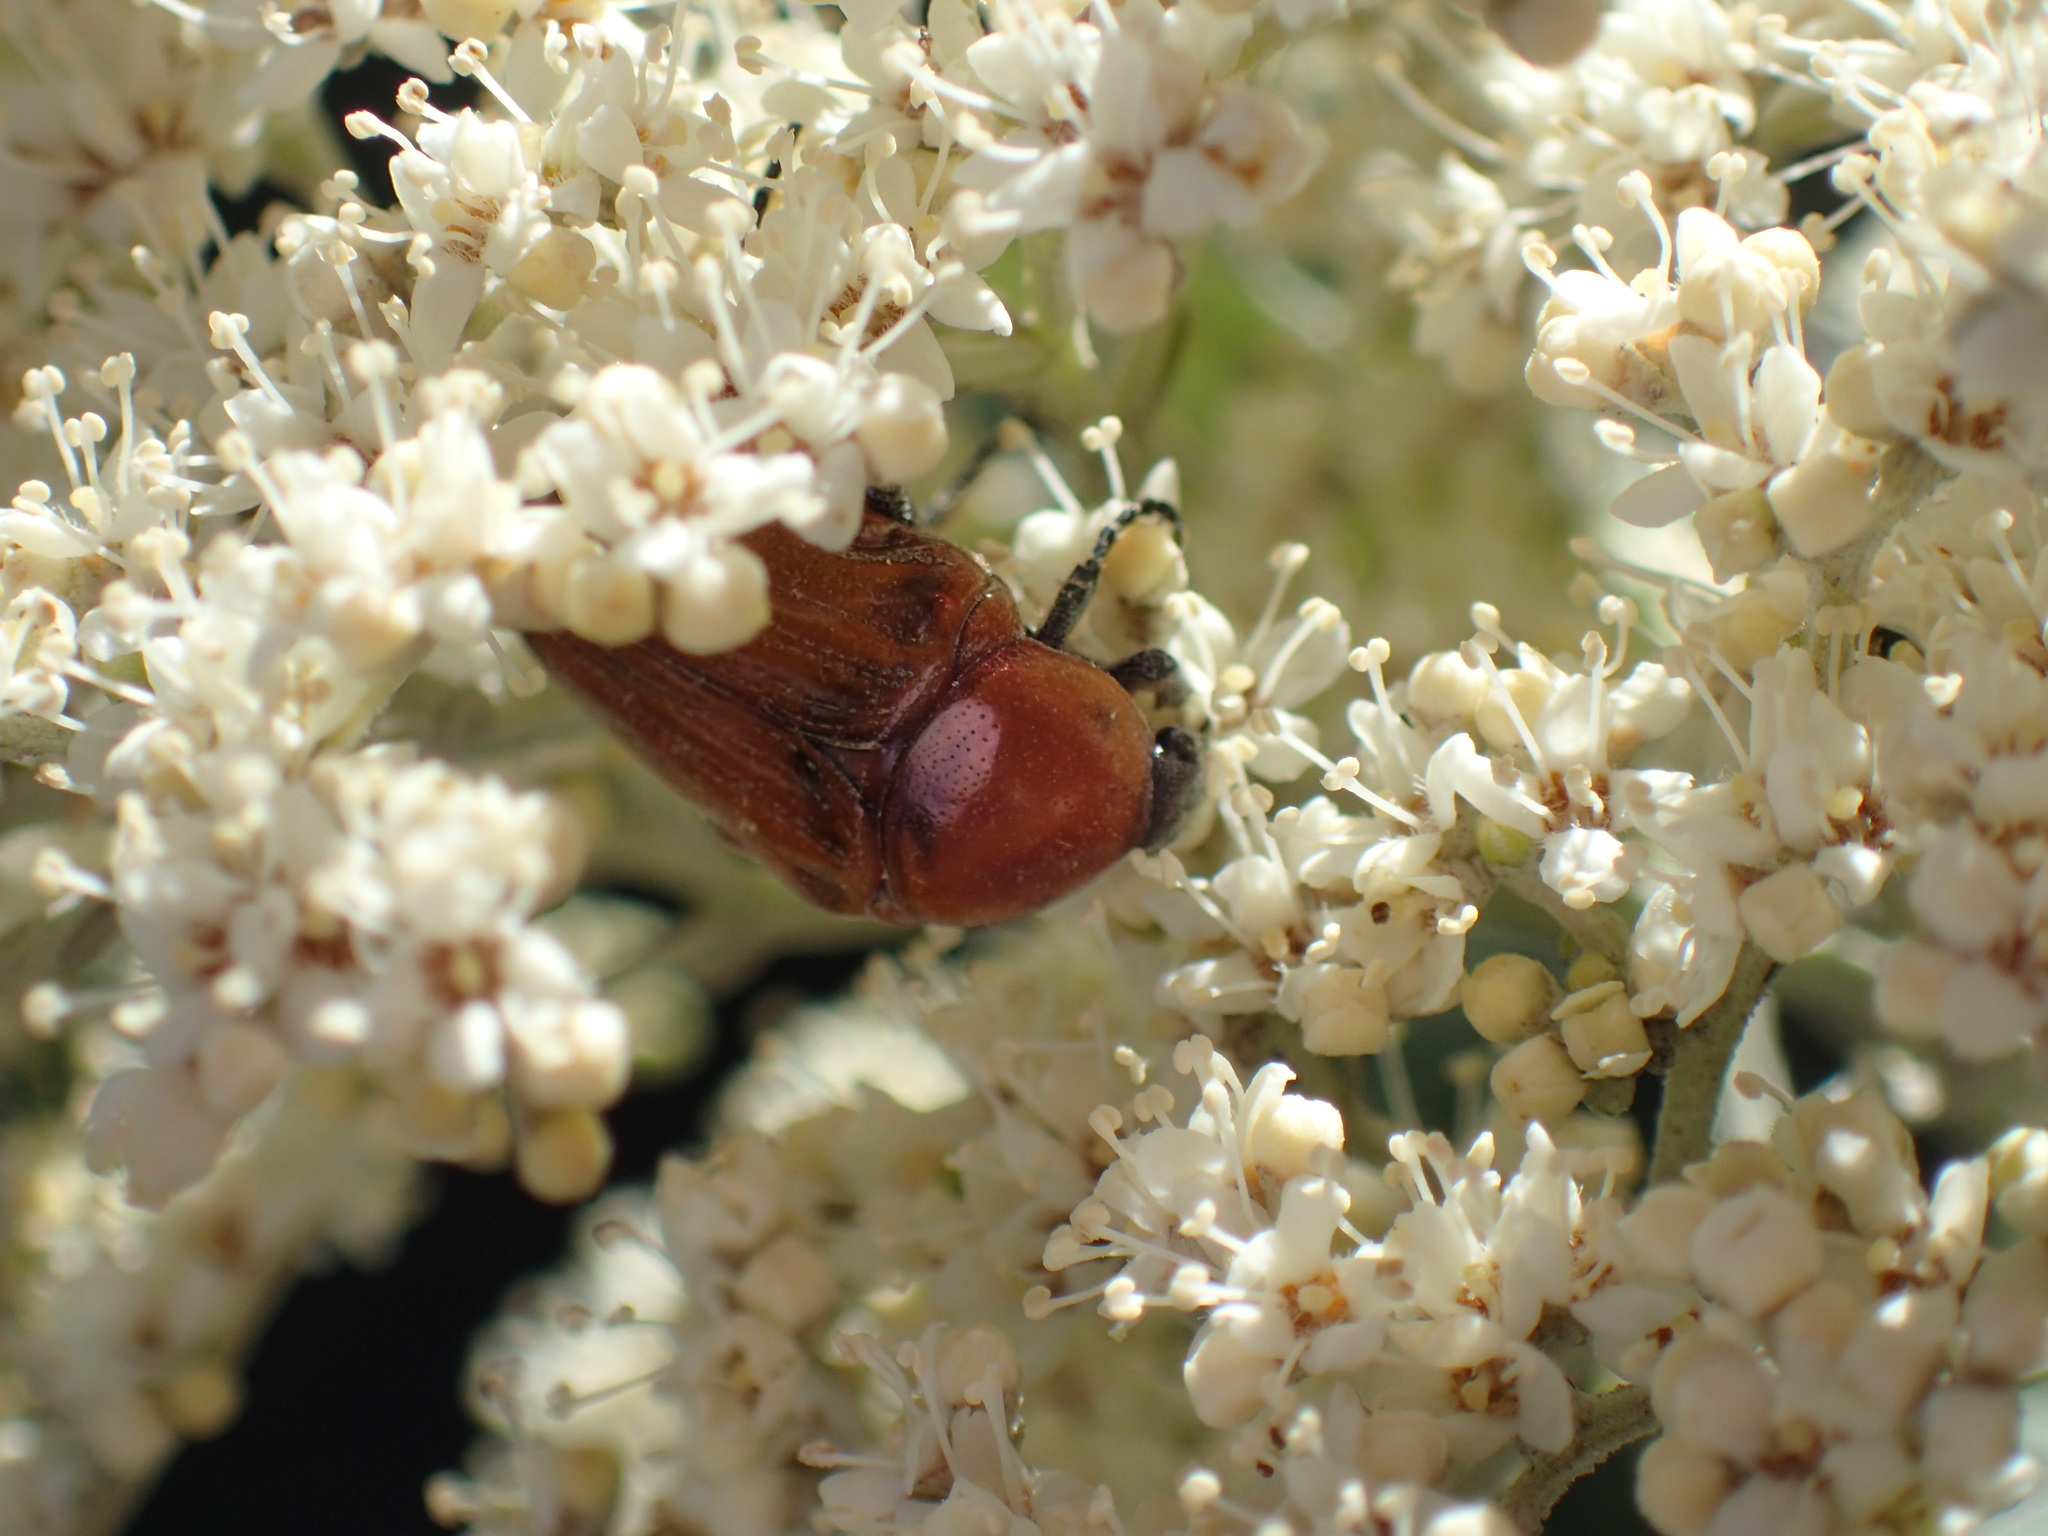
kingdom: Animalia
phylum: Arthropoda
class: Insecta
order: Coleoptera
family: Scarabaeidae
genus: Leucocelis
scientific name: Leucocelis rubra
